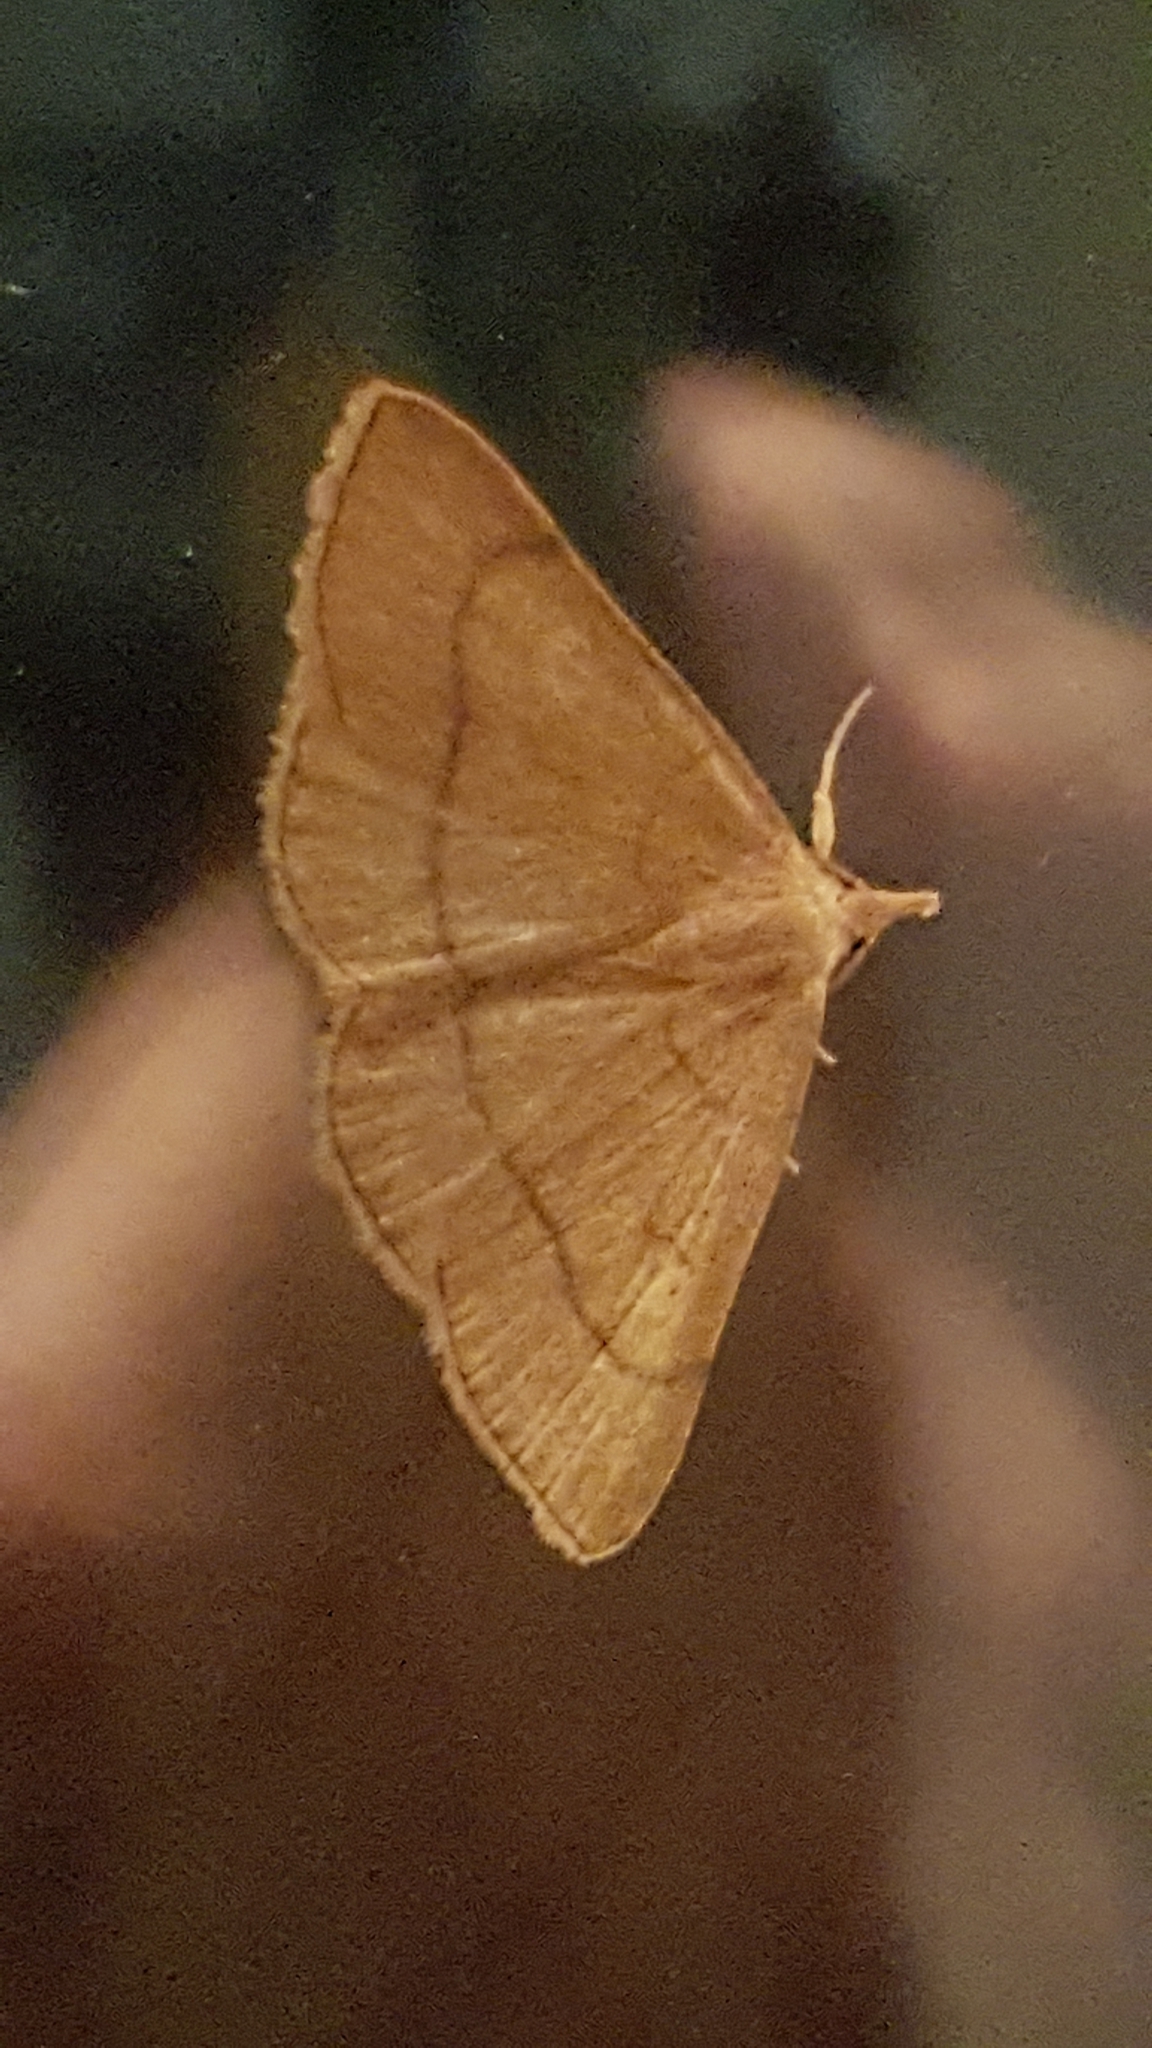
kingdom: Animalia
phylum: Arthropoda
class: Insecta
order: Lepidoptera
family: Erebidae
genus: Paracolax
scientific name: Paracolax tristalis
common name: Clay fan-foot
